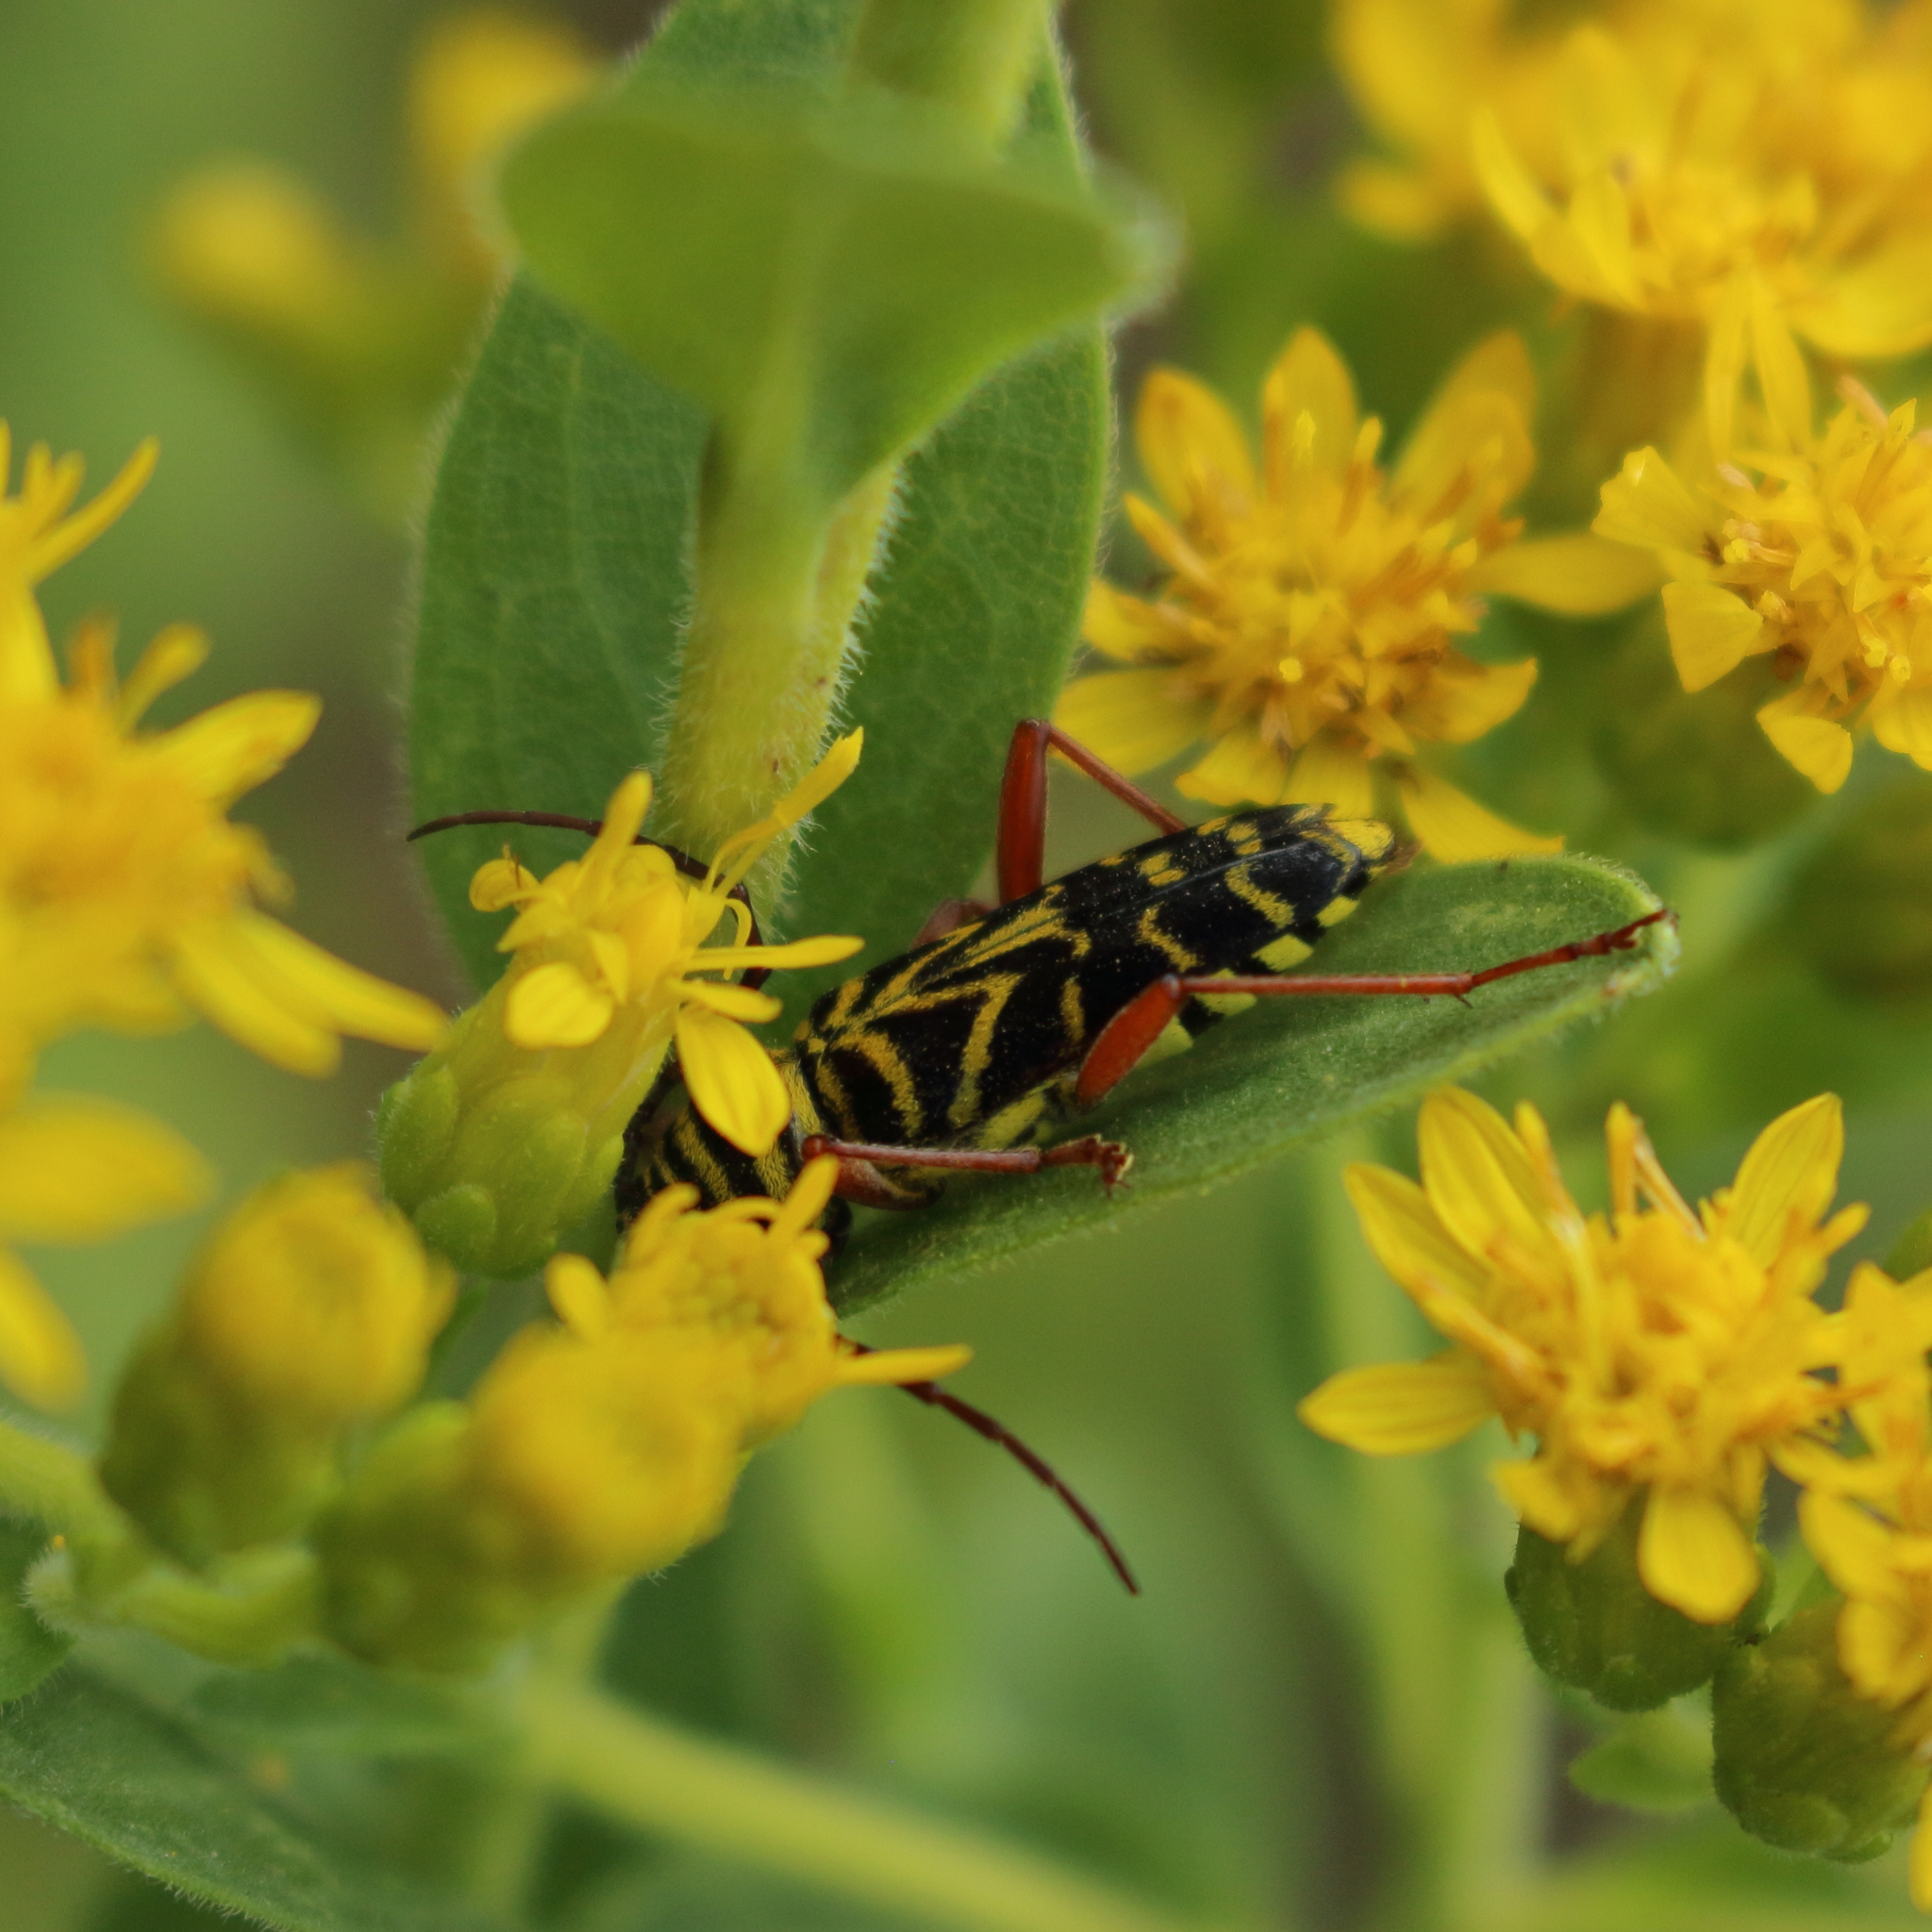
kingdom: Animalia
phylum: Arthropoda
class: Insecta
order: Coleoptera
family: Cerambycidae
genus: Megacyllene
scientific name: Megacyllene robiniae
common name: Locust borer
